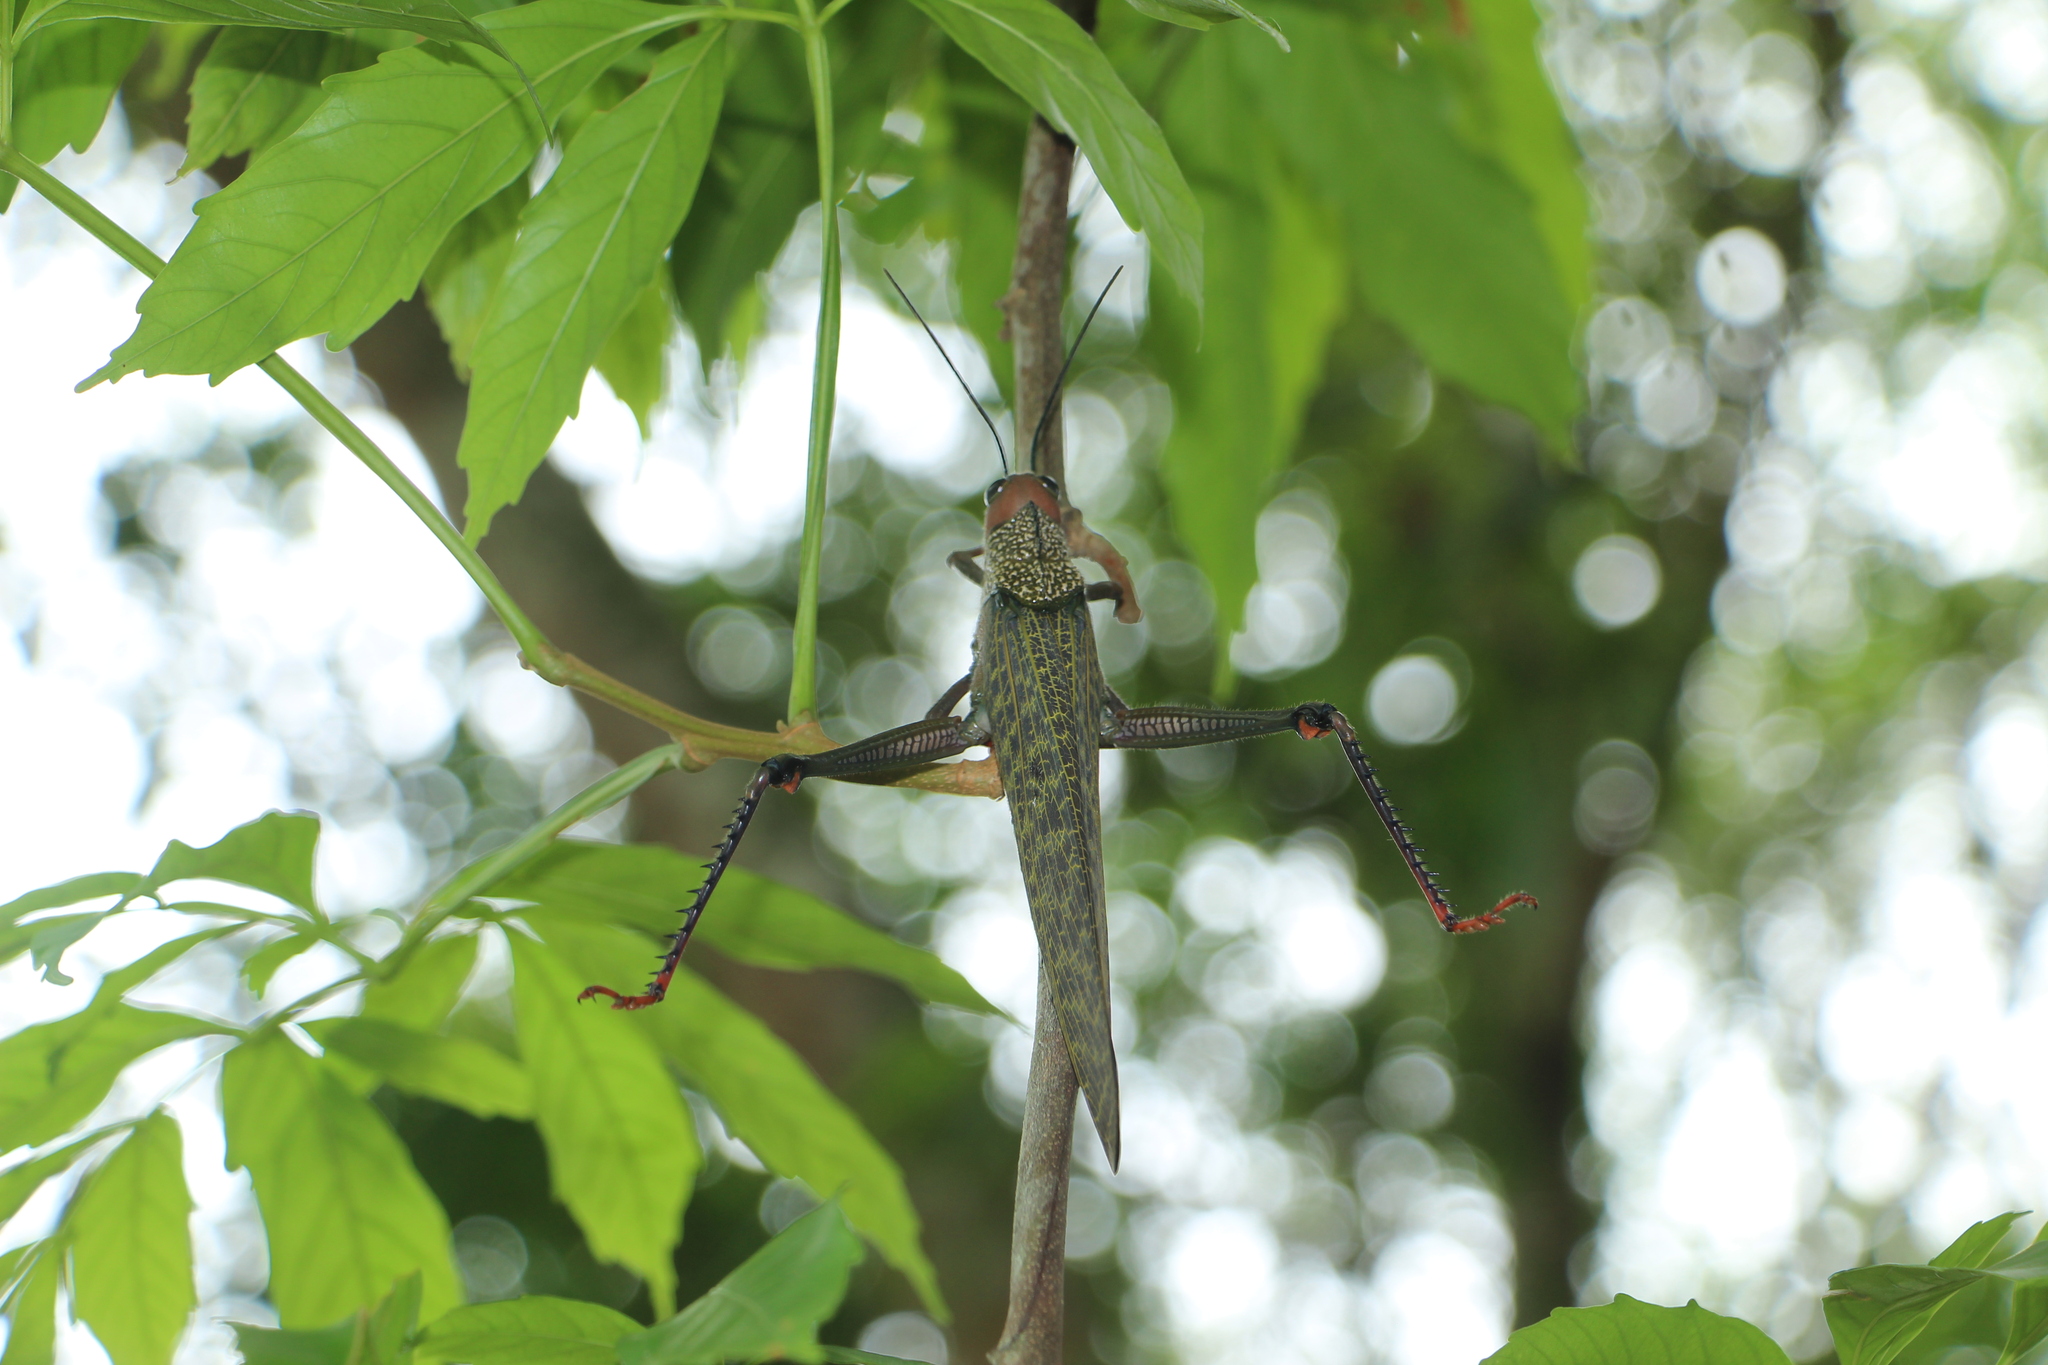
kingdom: Animalia
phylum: Arthropoda
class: Insecta
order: Orthoptera
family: Romaleidae
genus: Tropidacris
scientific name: Tropidacris cristata
